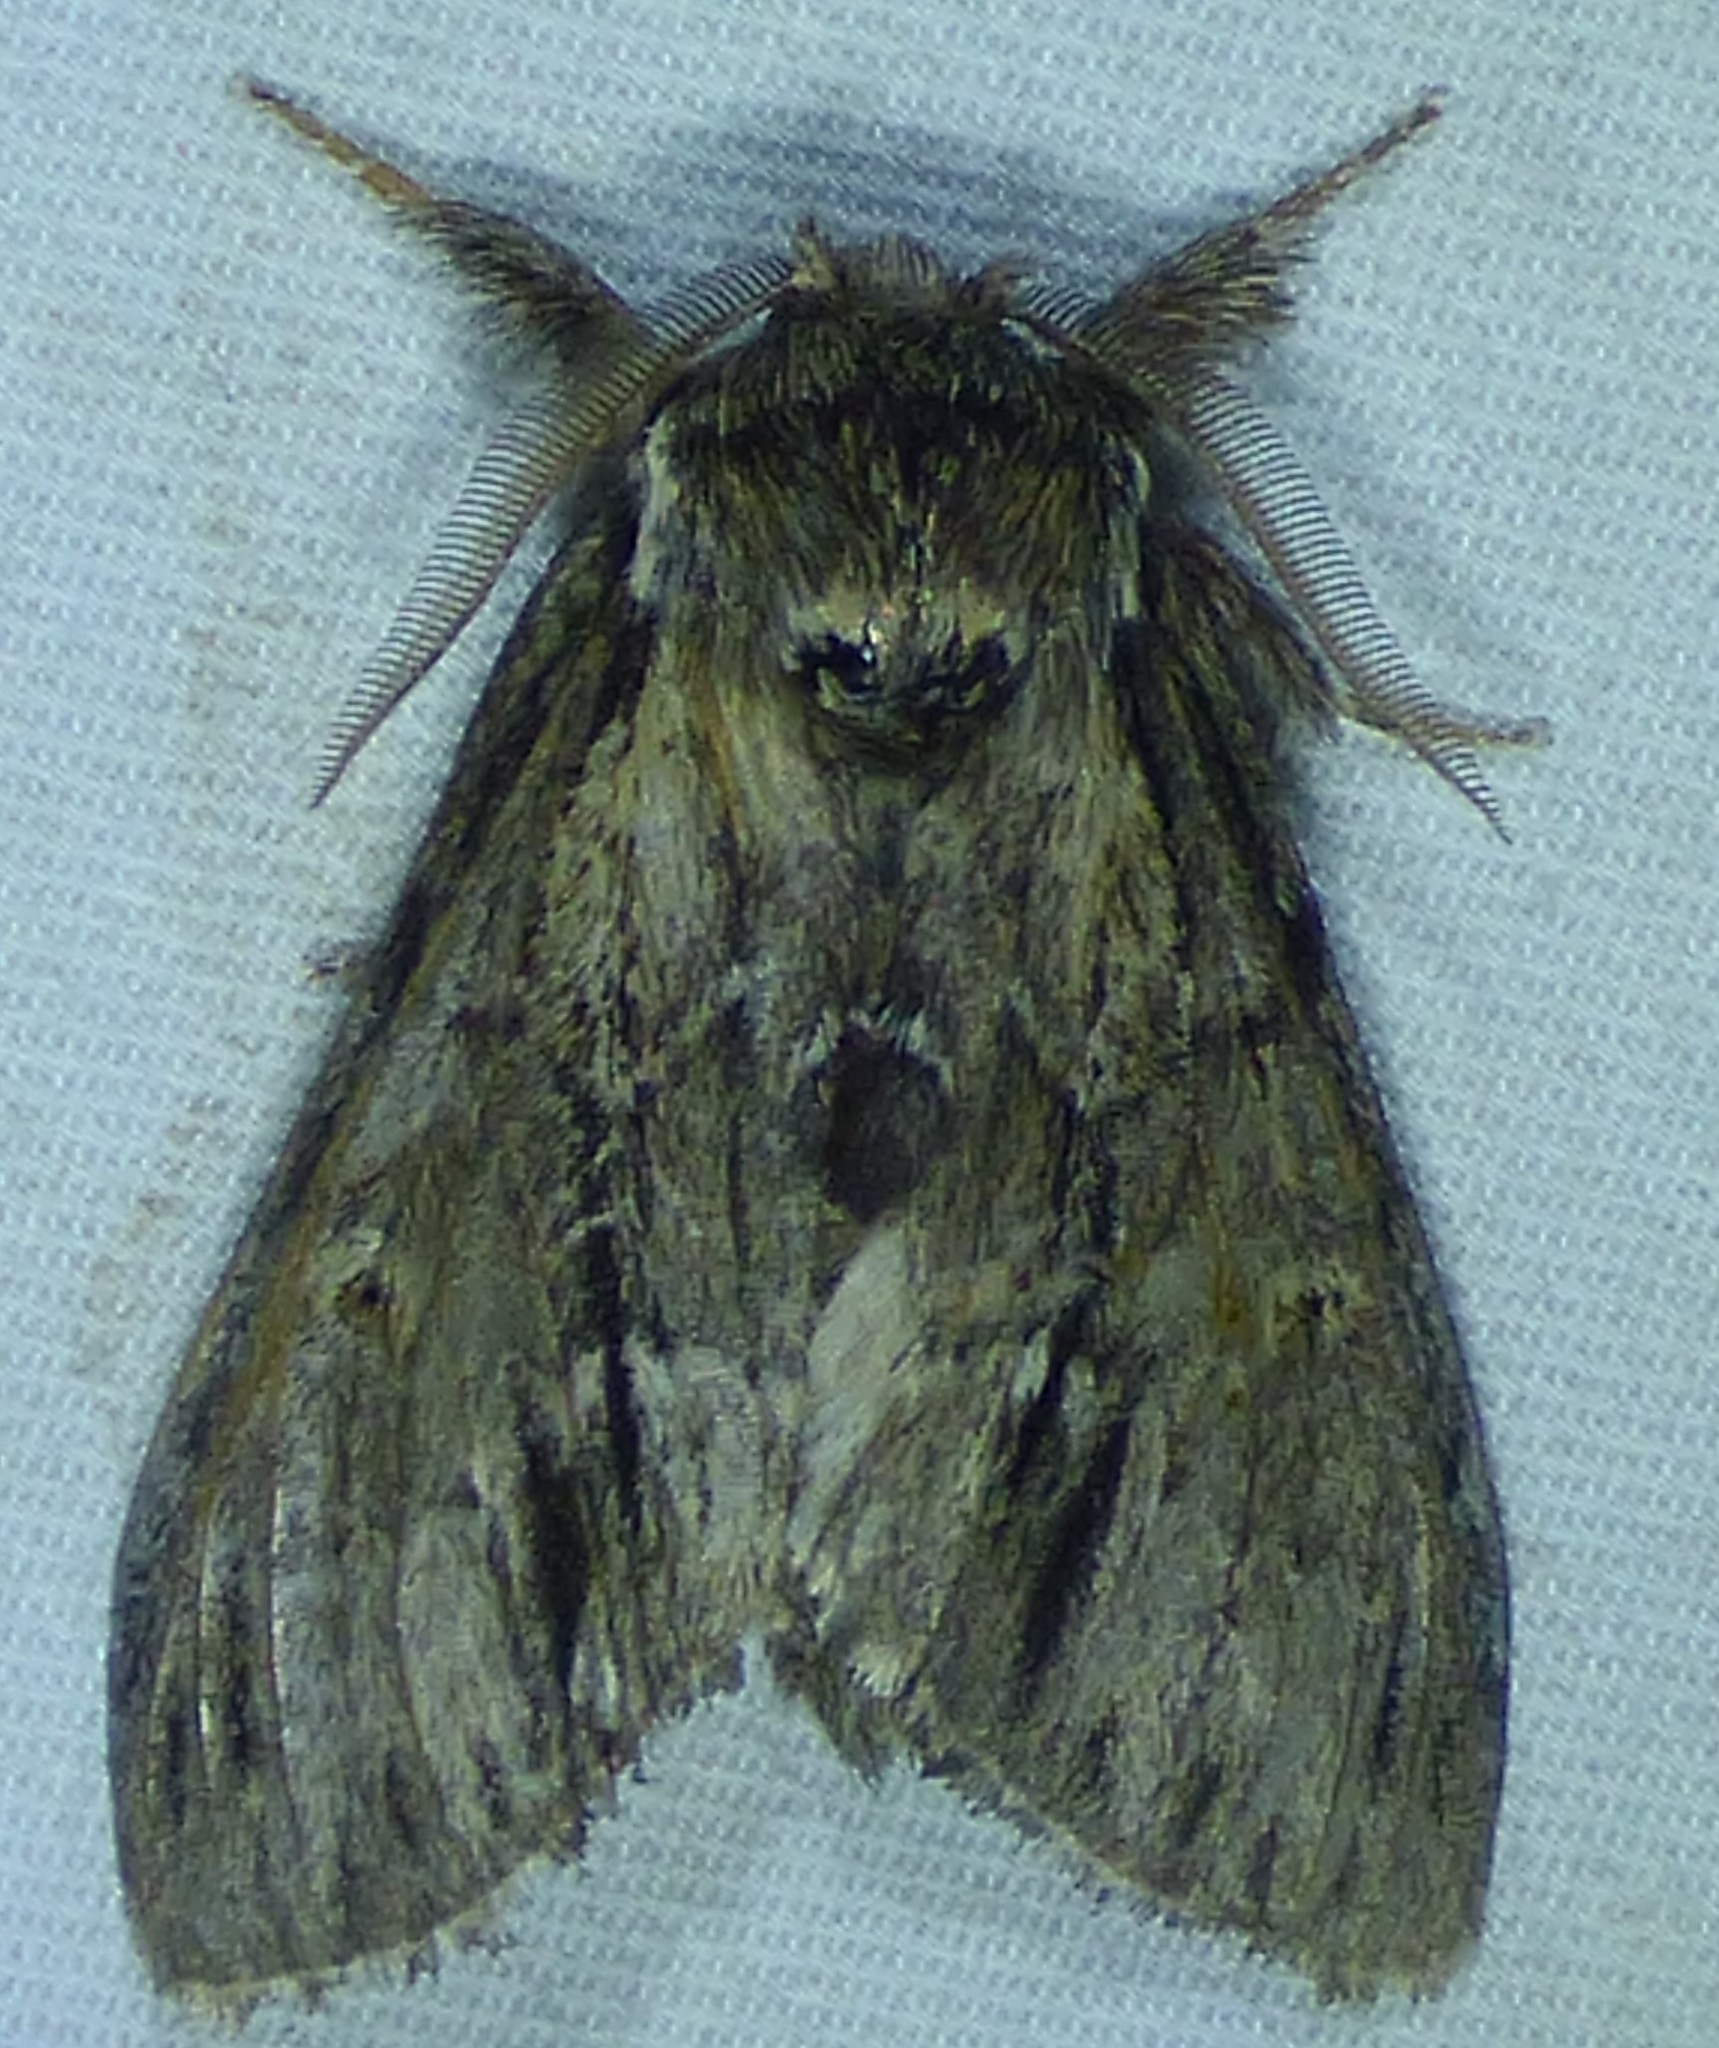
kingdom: Animalia
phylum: Arthropoda
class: Insecta
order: Lepidoptera
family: Notodontidae
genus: Paraeschra
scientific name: Paraeschra georgica
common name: Georgian prominent
